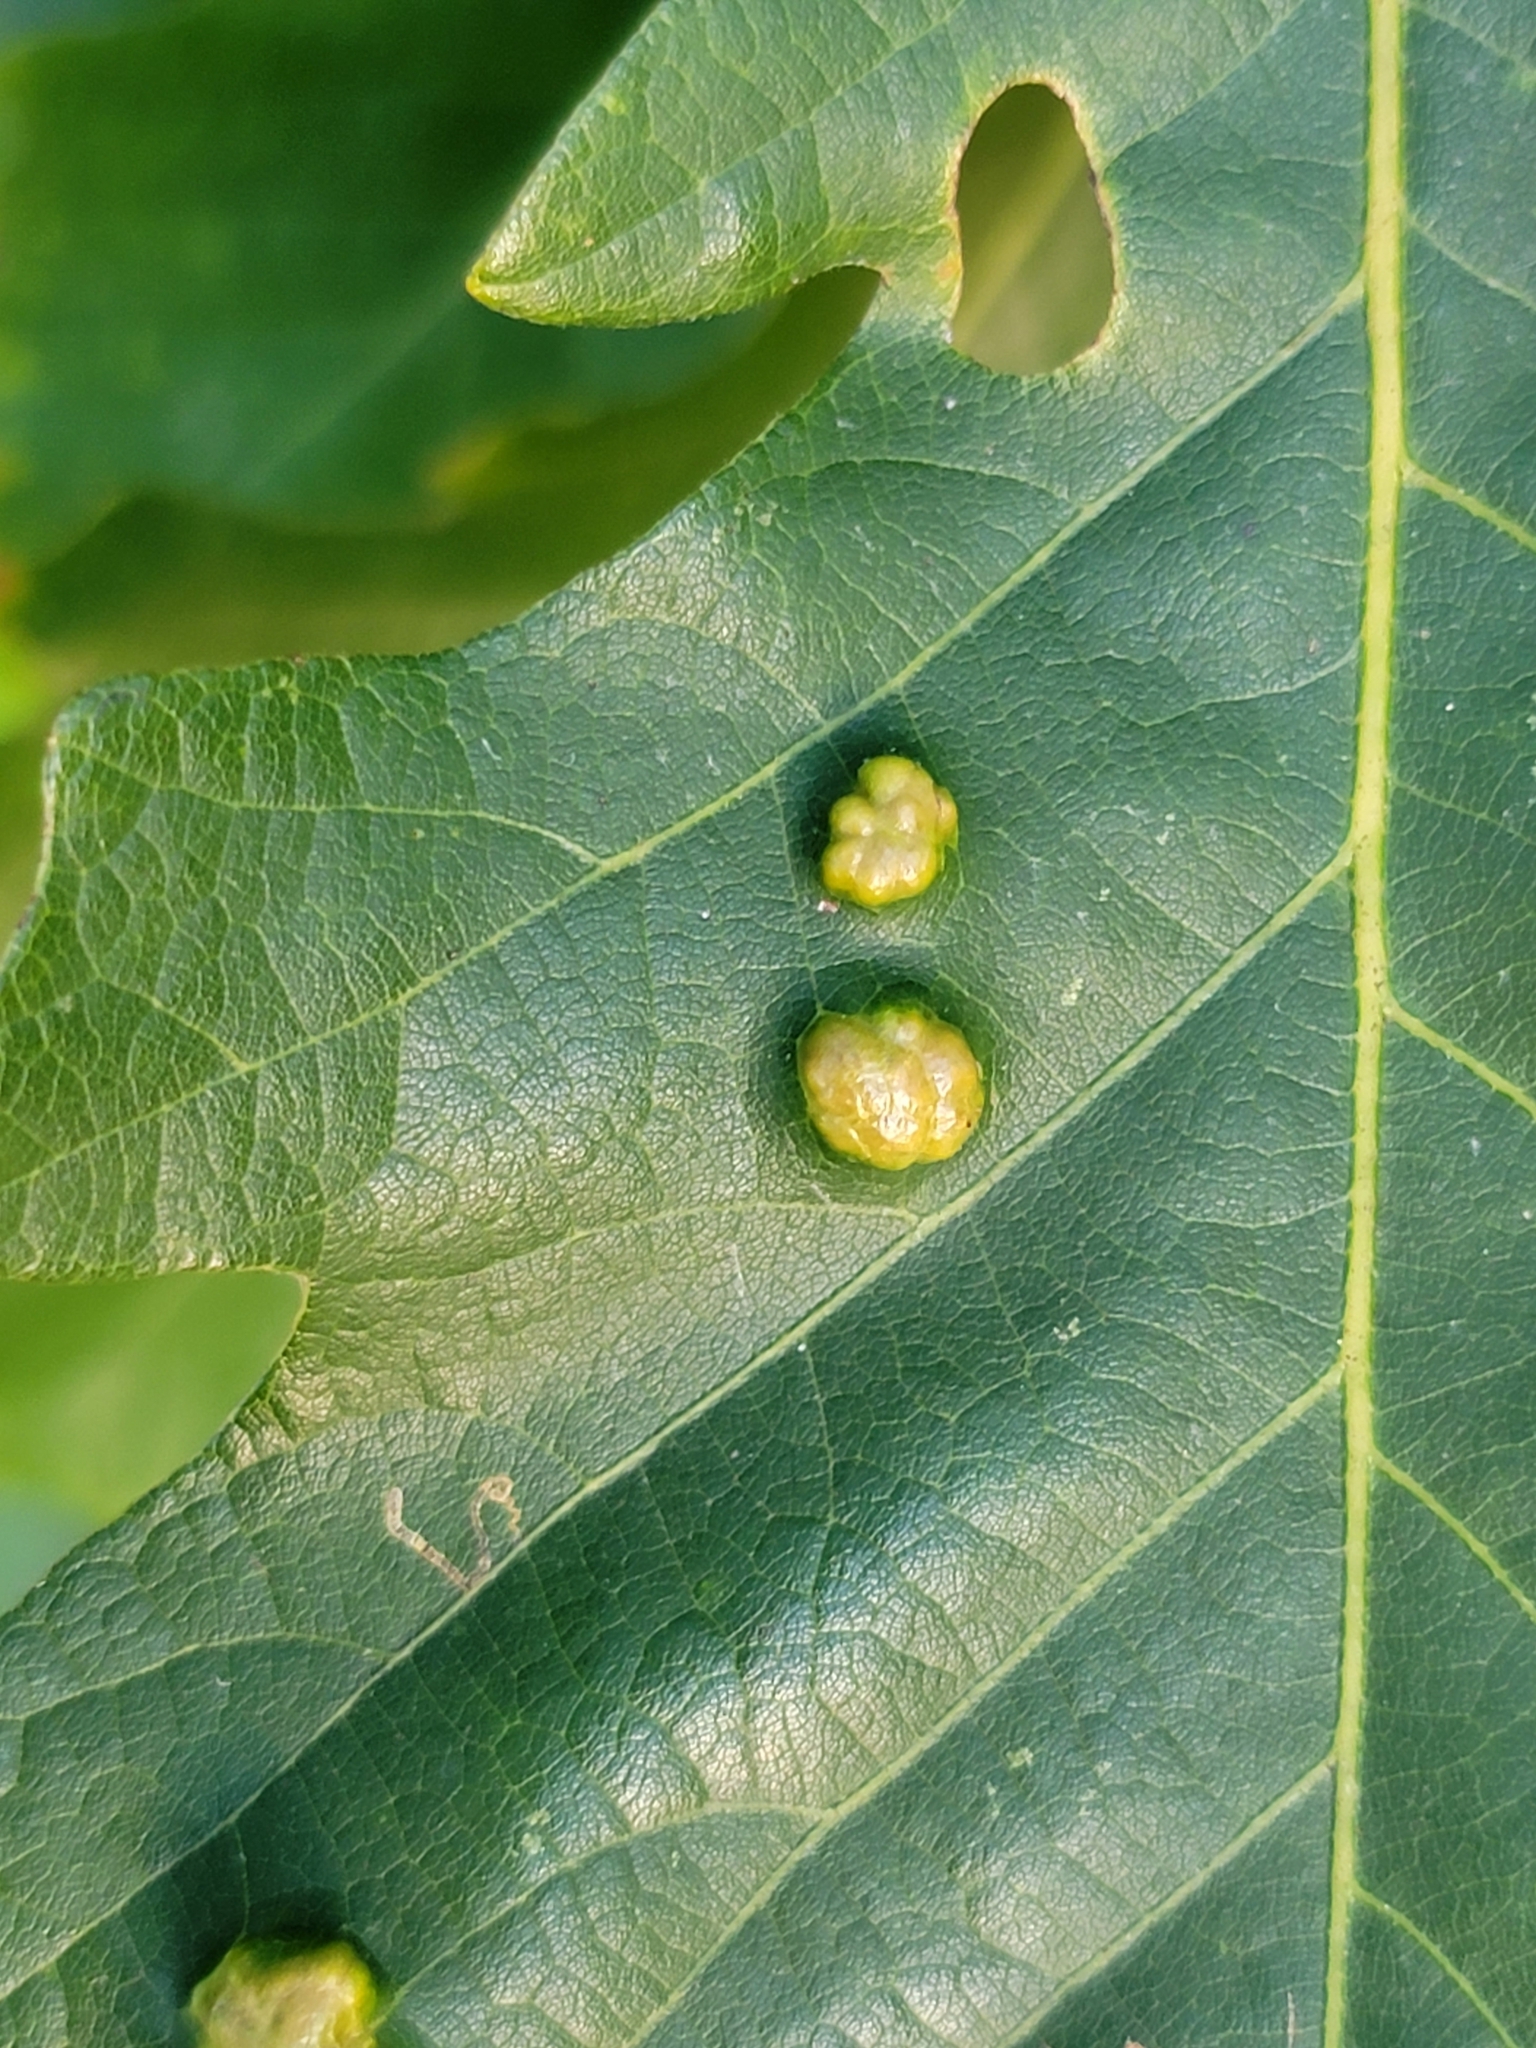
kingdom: Animalia
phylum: Arthropoda
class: Arachnida
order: Trombidiformes
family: Eriophyidae
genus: Aceria
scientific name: Aceria quercina
